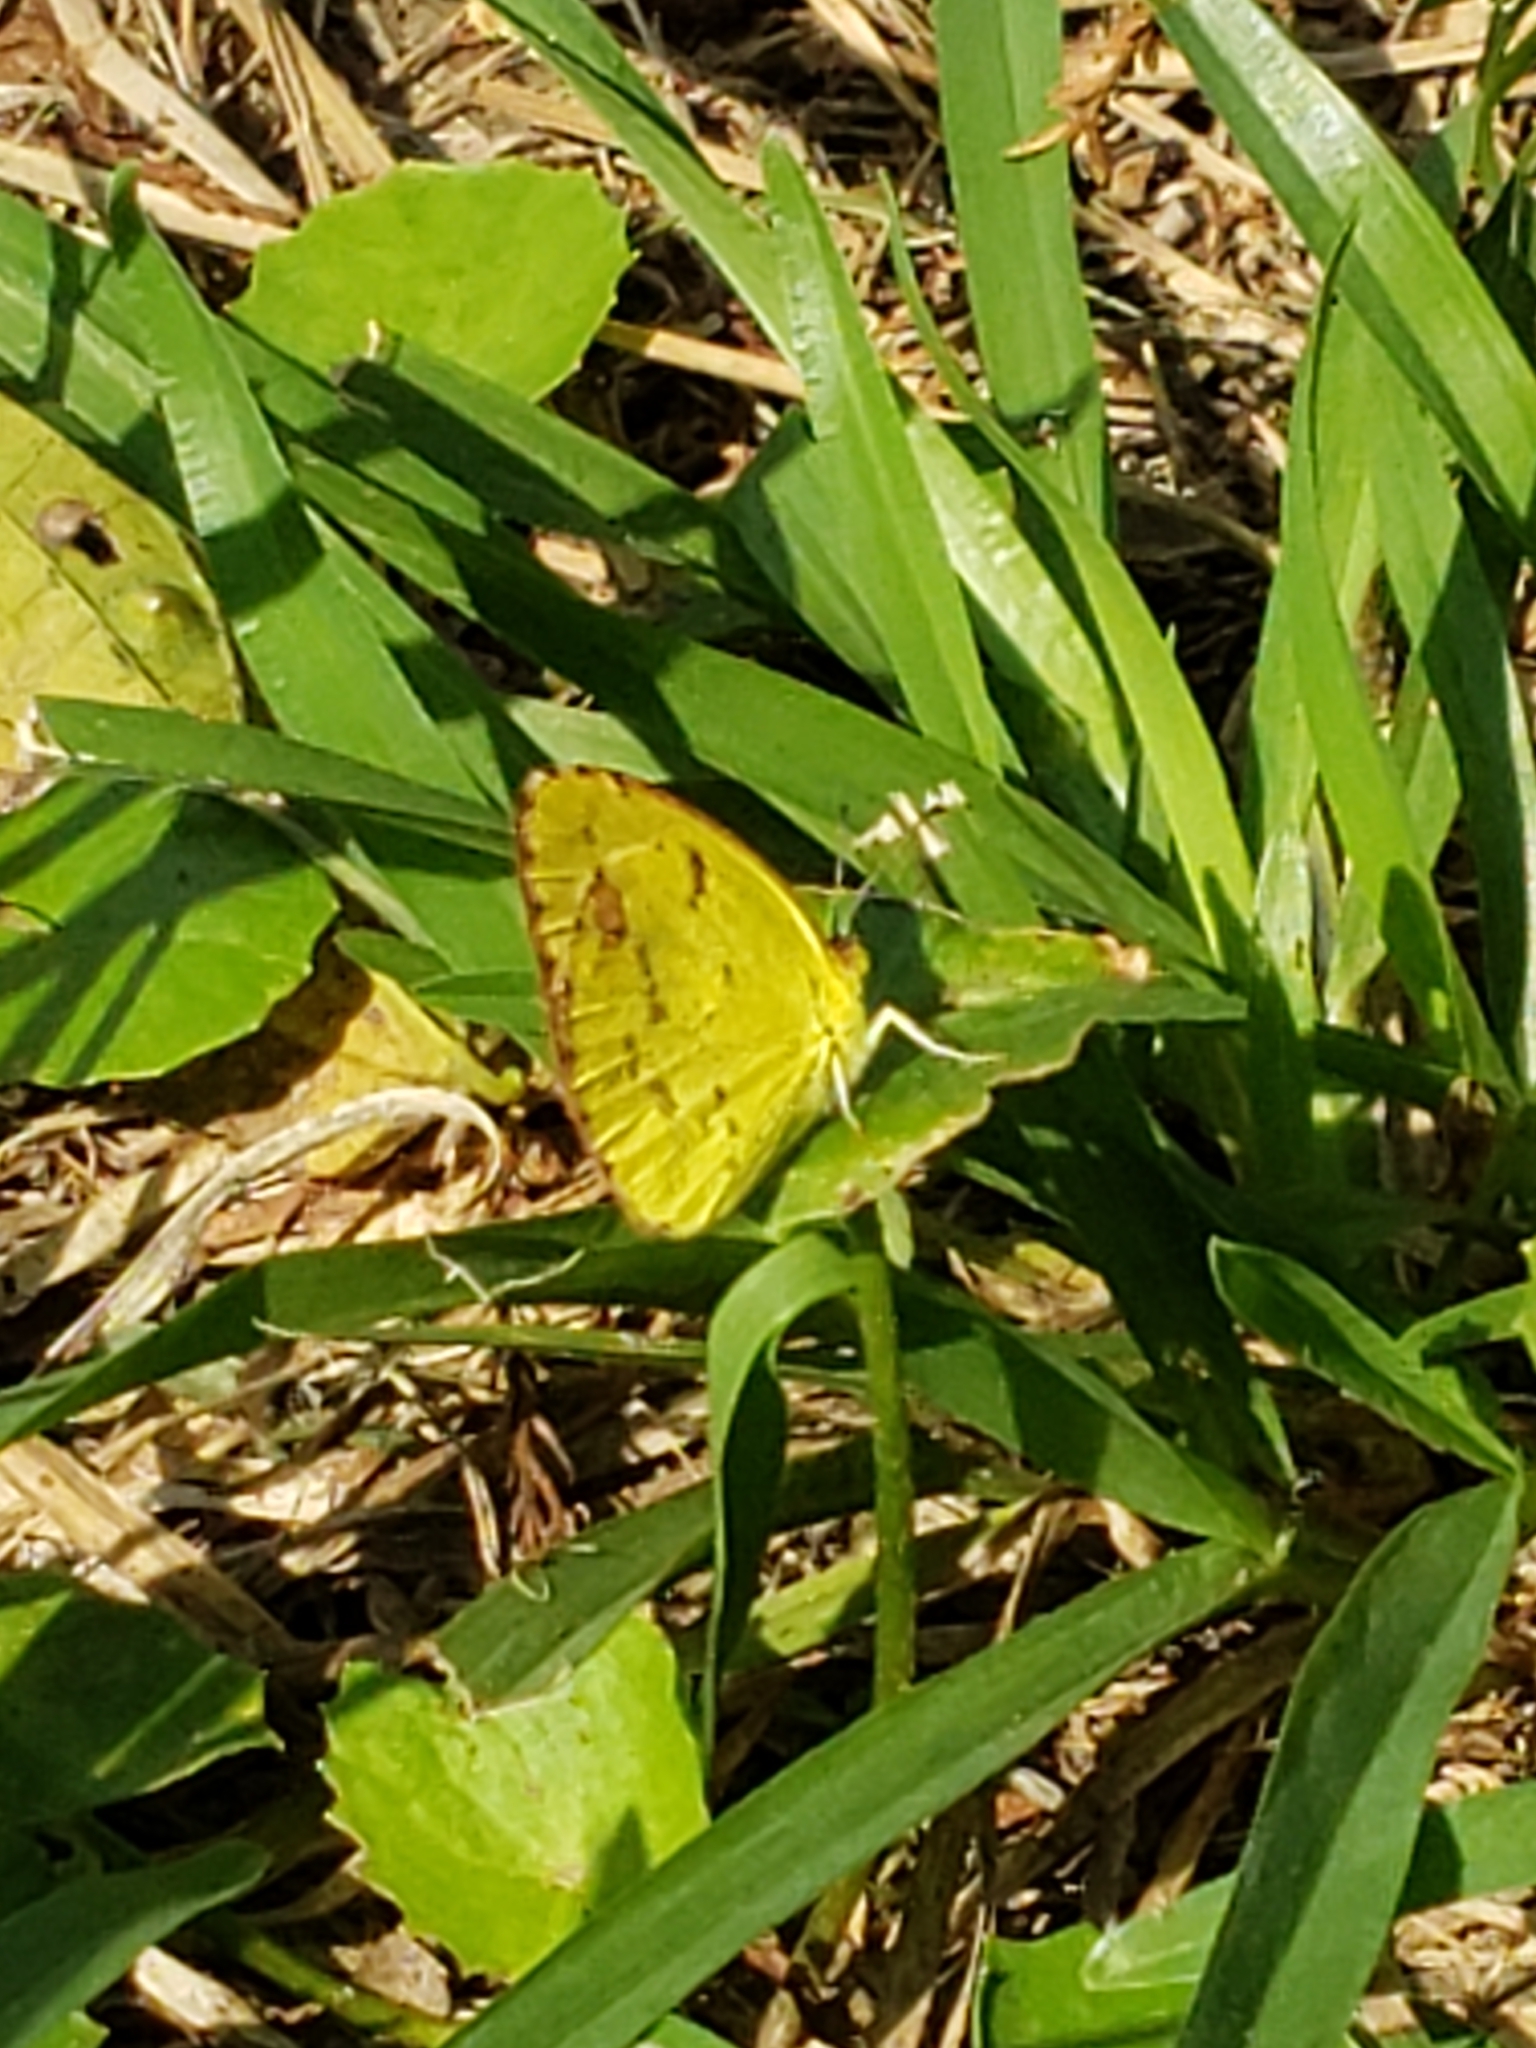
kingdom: Animalia
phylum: Arthropoda
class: Insecta
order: Lepidoptera
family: Pieridae
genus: Pyrisitia
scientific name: Pyrisitia lisa
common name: Little yellow
